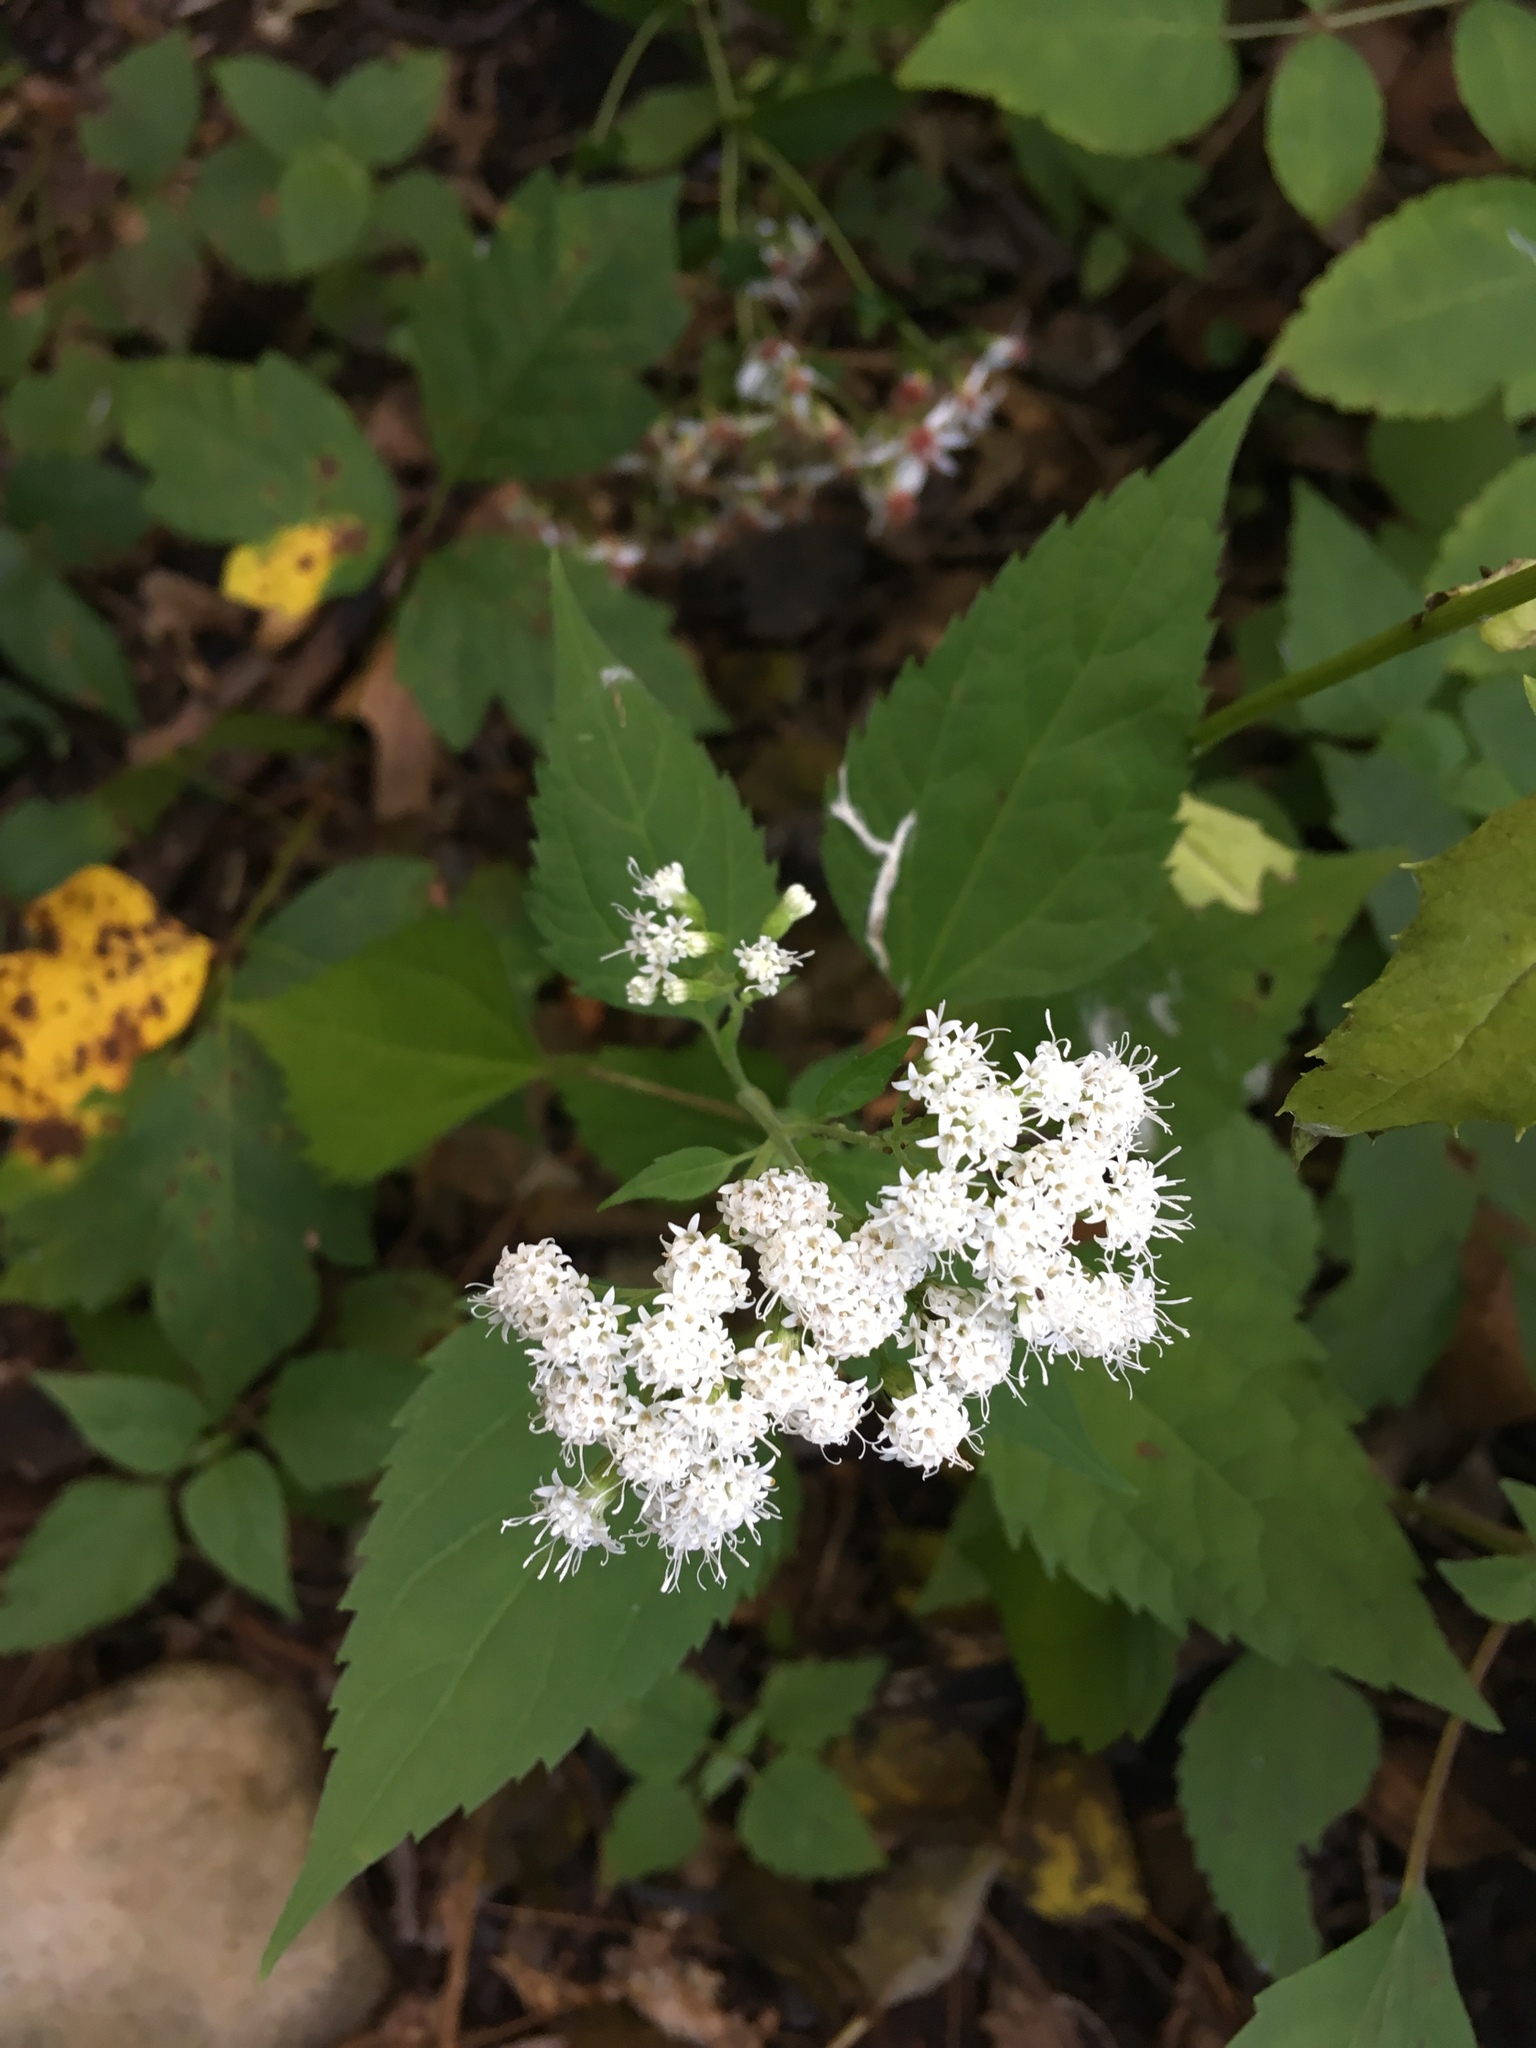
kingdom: Plantae
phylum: Tracheophyta
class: Magnoliopsida
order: Asterales
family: Asteraceae
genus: Ageratina
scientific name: Ageratina altissima
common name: White snakeroot
